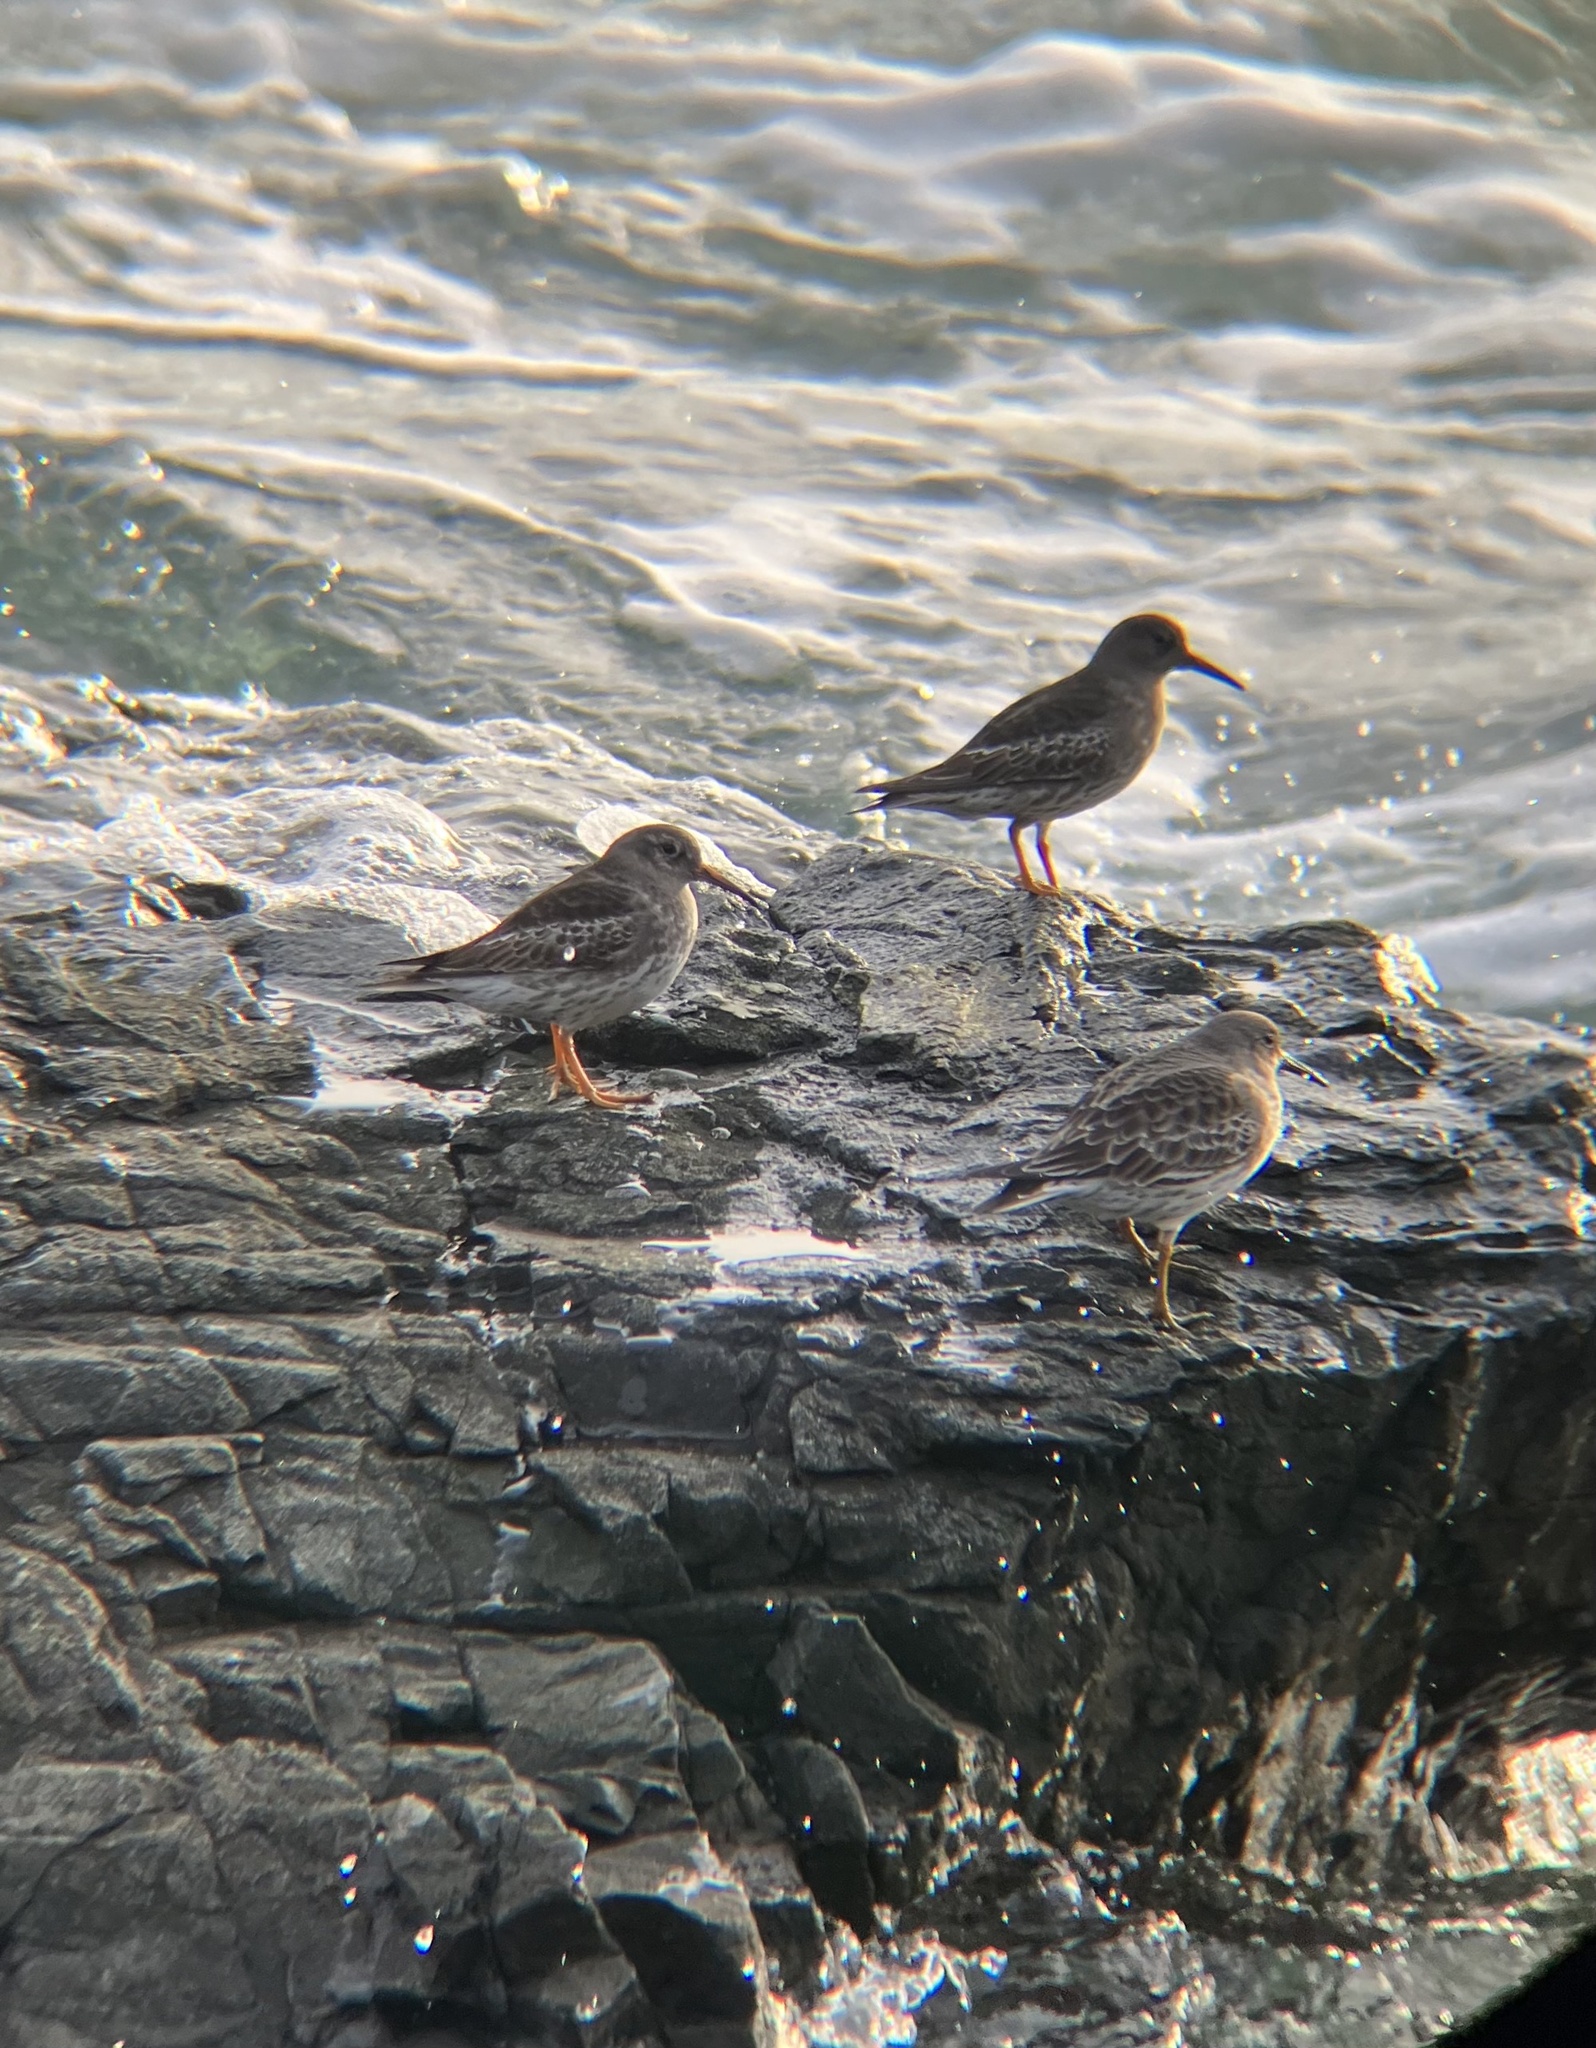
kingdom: Animalia
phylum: Chordata
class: Aves
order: Charadriiformes
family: Scolopacidae
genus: Calidris
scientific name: Calidris maritima
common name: Purple sandpiper
